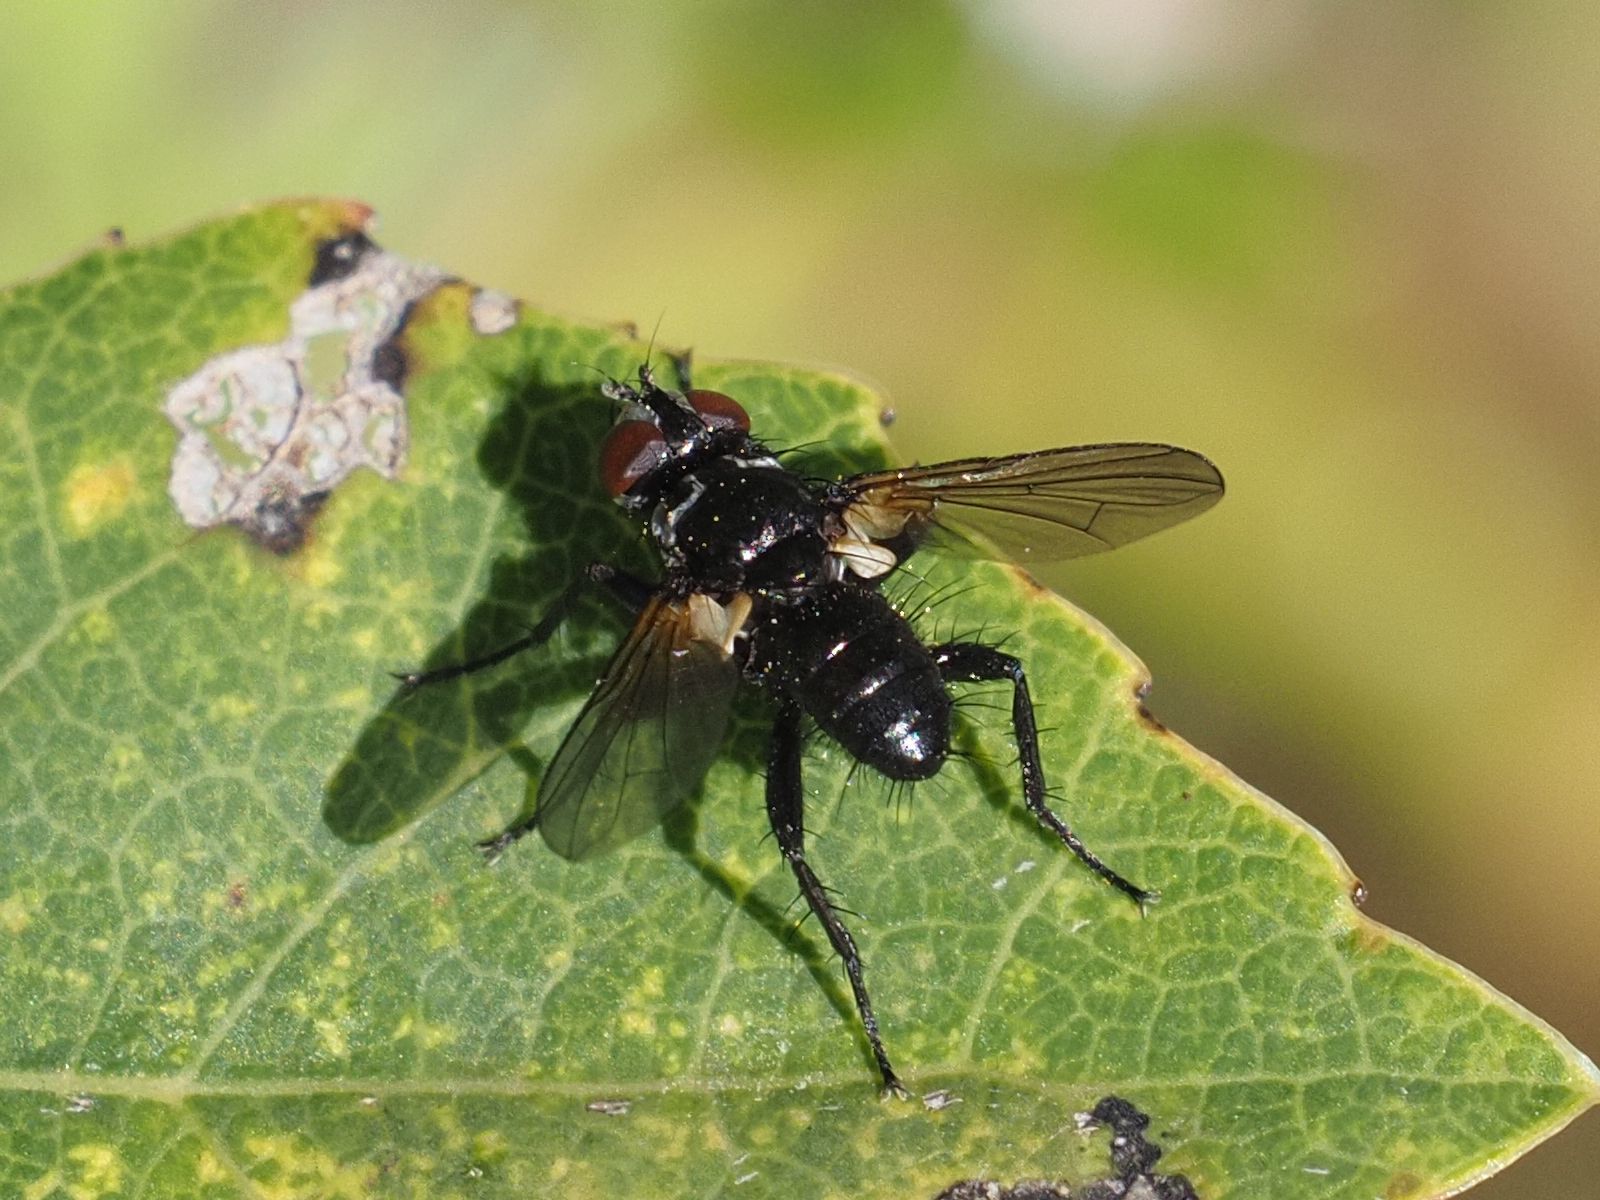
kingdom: Animalia
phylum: Arthropoda
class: Insecta
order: Diptera
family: Tachinidae
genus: Phania
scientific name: Phania funesta
